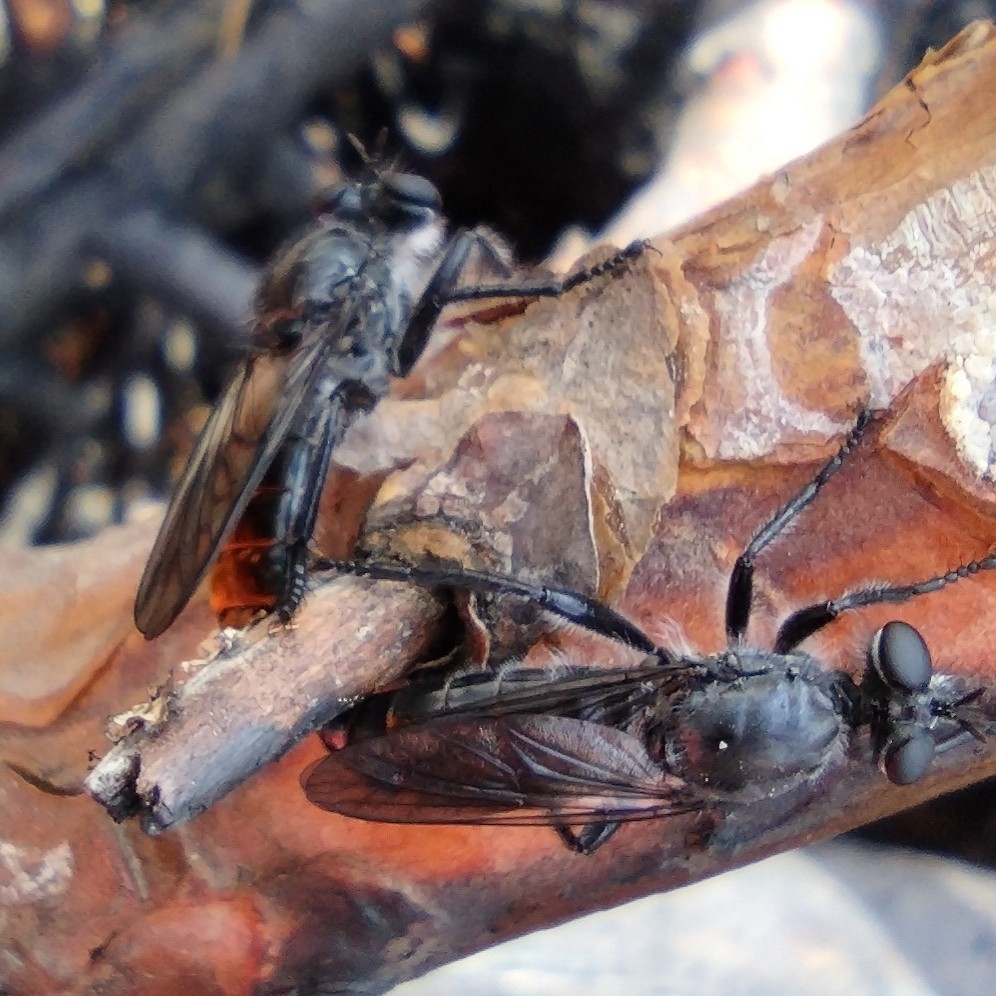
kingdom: Animalia
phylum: Arthropoda
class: Insecta
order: Diptera
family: Asilidae
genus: Laphria
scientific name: Laphria gilva
